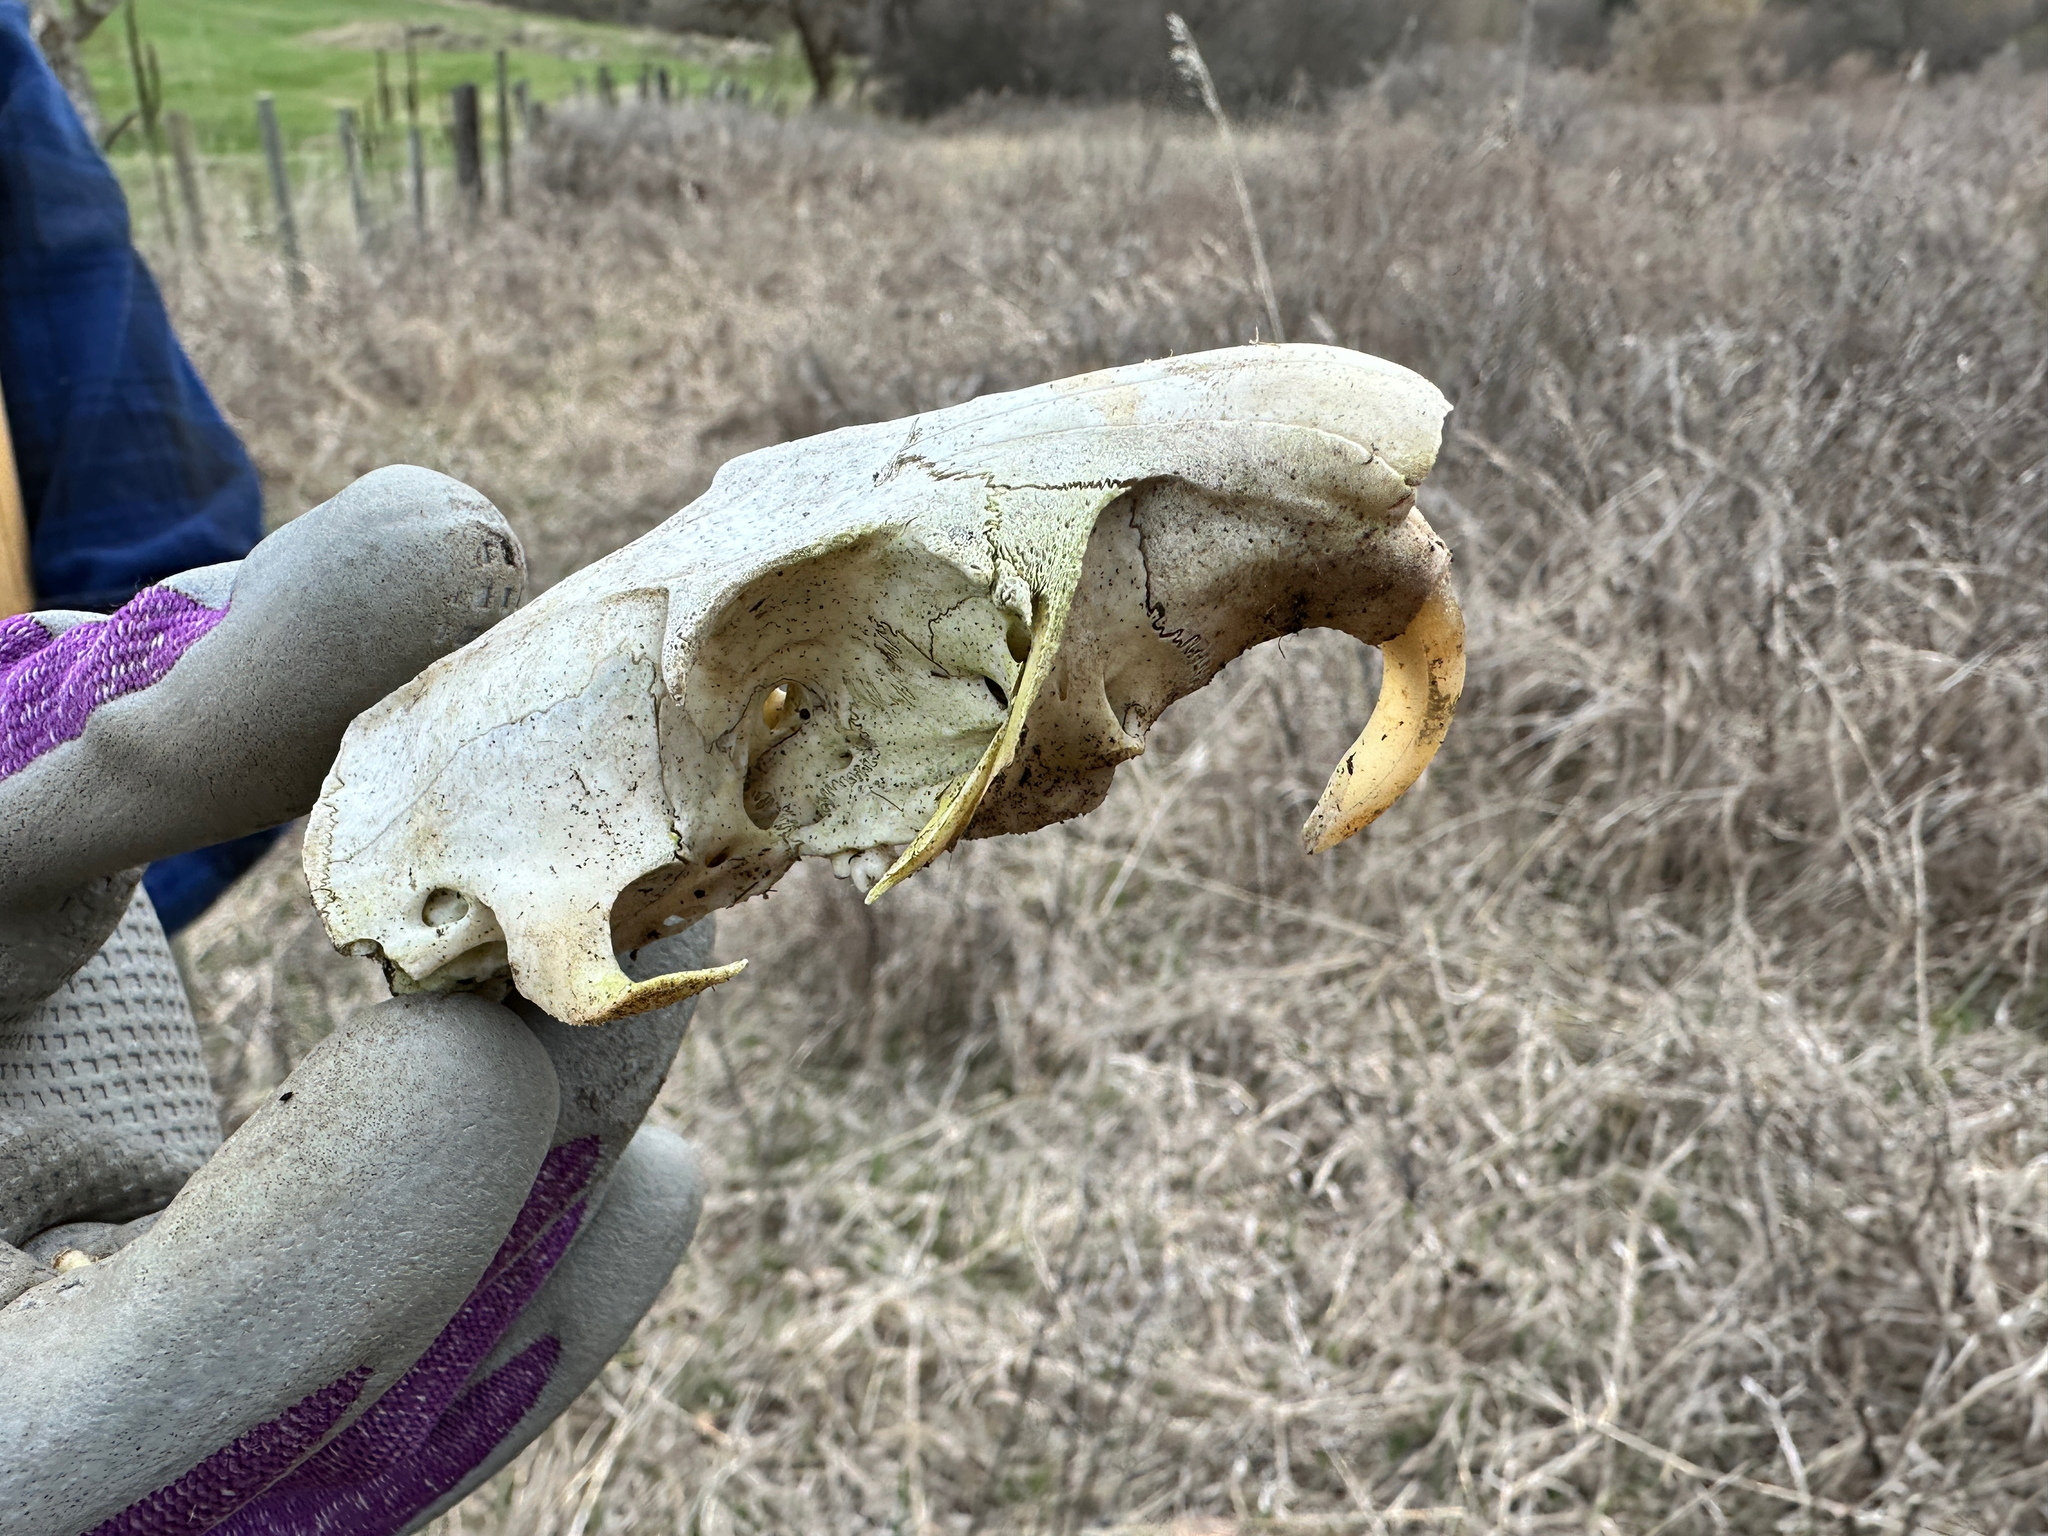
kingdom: Animalia
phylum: Chordata
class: Mammalia
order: Rodentia
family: Sciuridae
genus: Marmota
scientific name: Marmota flaviventris
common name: Yellow-bellied marmot
